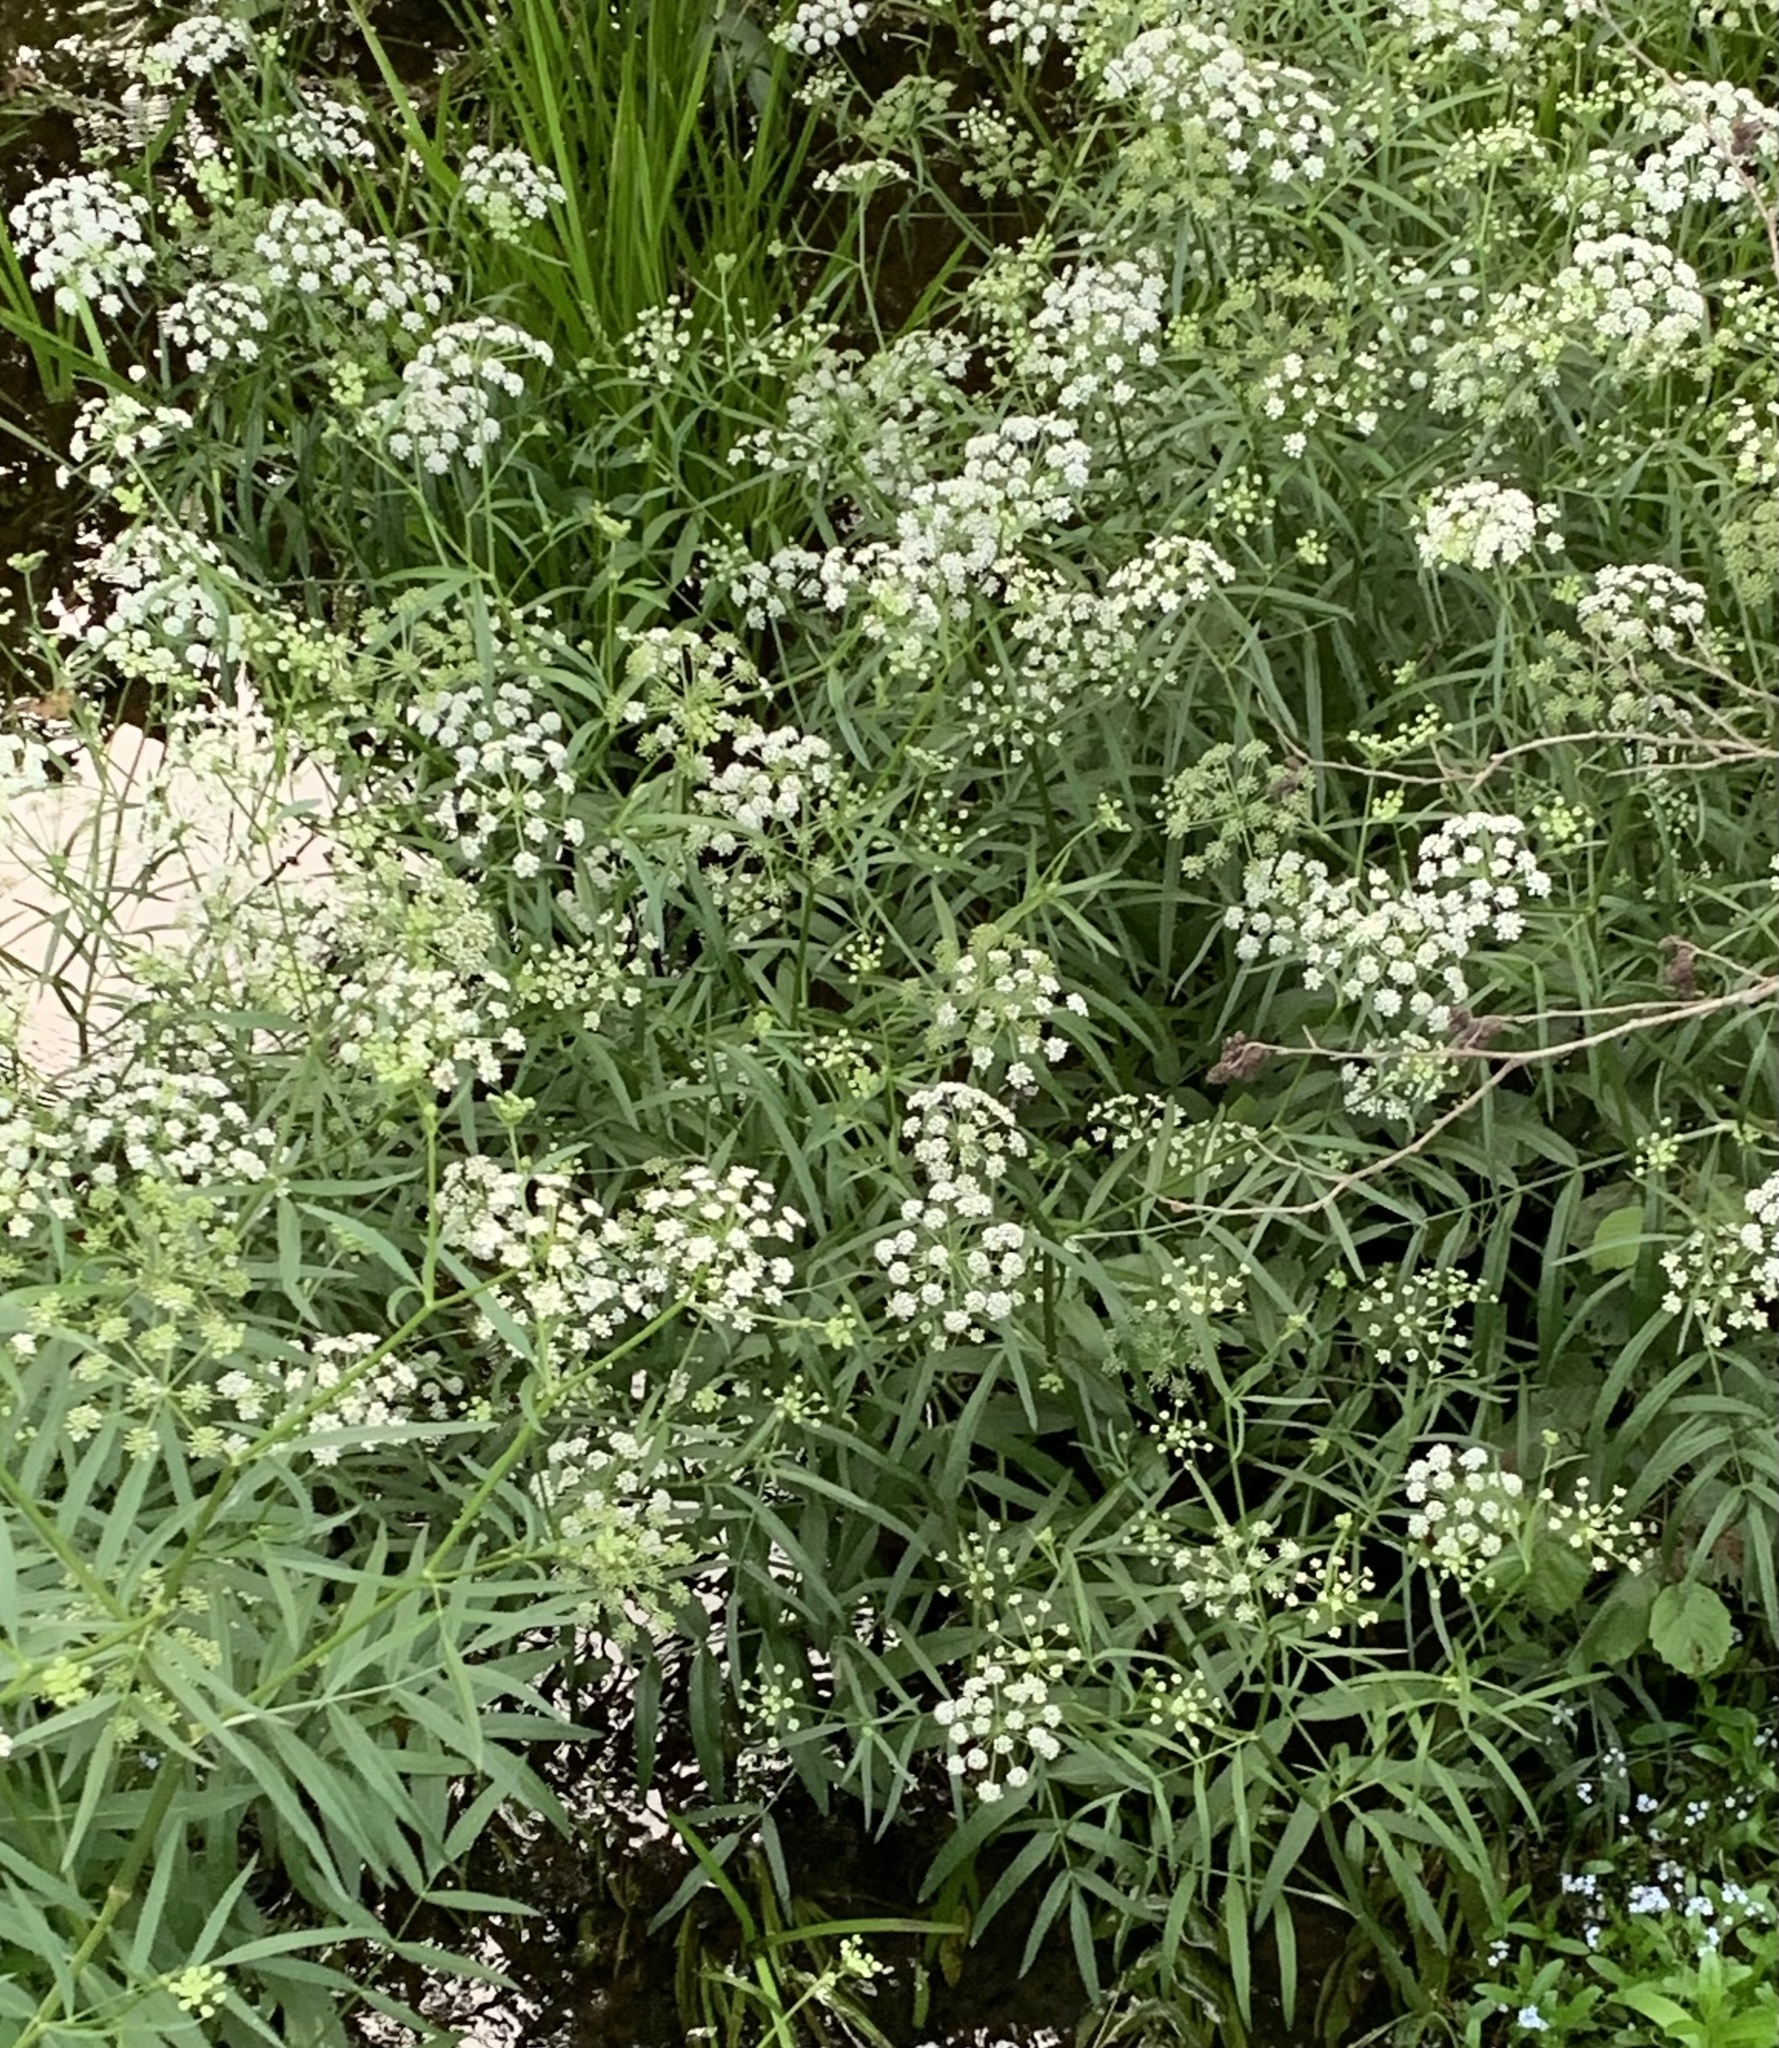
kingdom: Plantae
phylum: Tracheophyta
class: Magnoliopsida
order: Apiales
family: Apiaceae
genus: Sium
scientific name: Sium suave
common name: Hemlock water-parsnip
